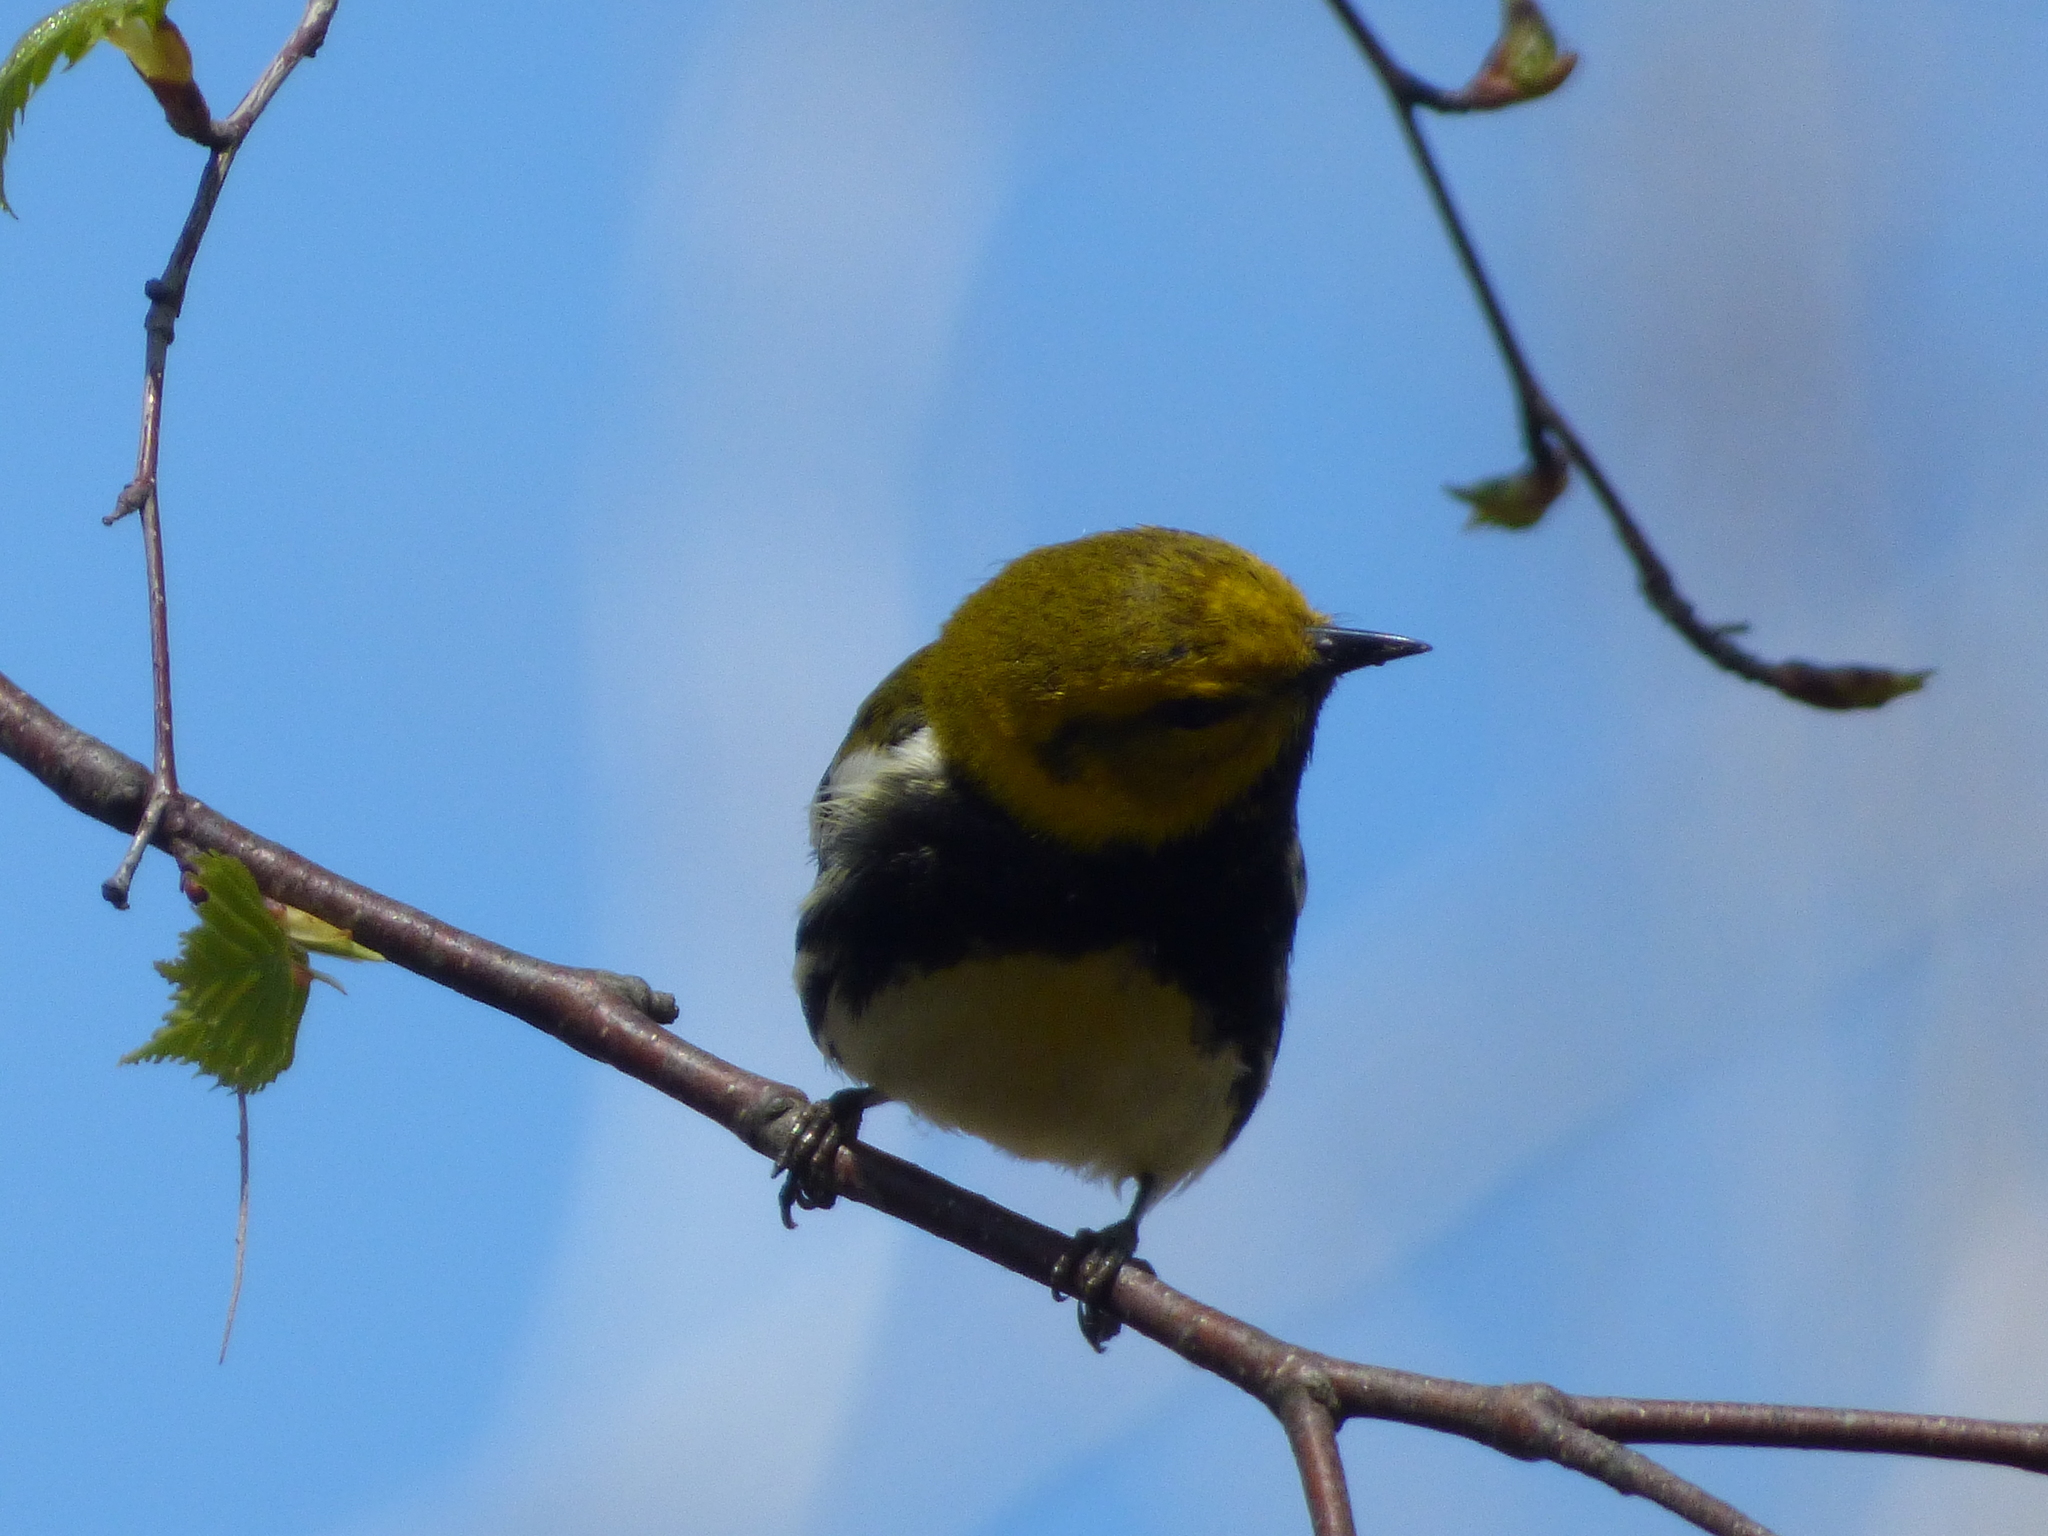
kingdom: Animalia
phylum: Chordata
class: Aves
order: Passeriformes
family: Parulidae
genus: Setophaga
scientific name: Setophaga virens
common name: Black-throated green warbler
